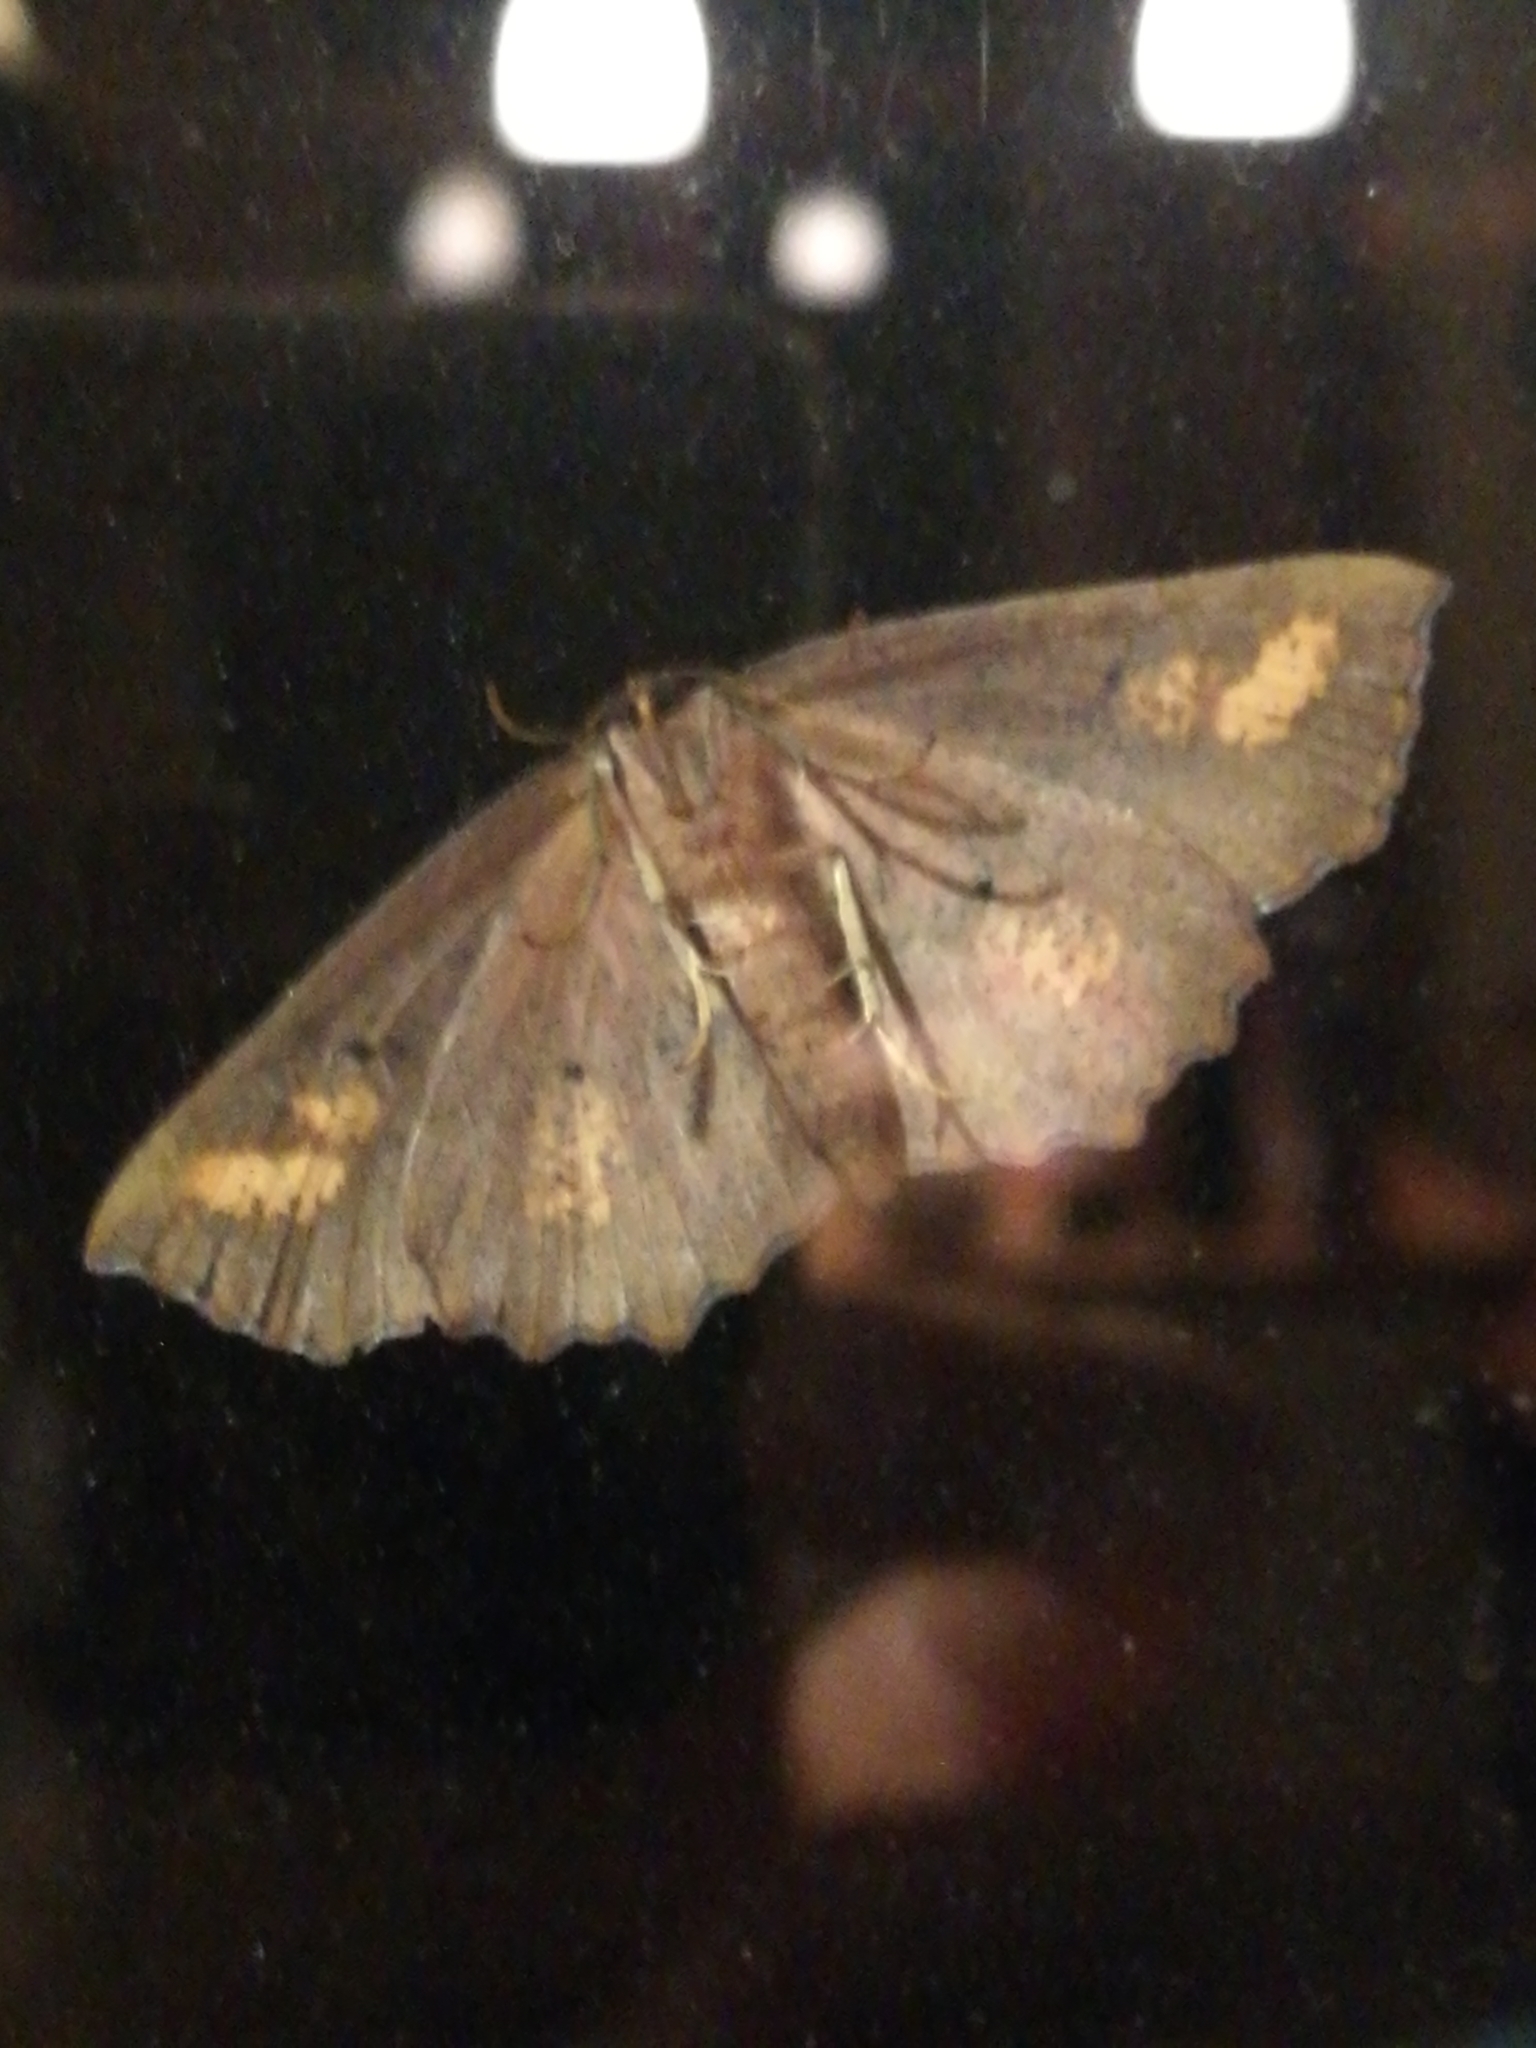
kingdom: Animalia
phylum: Arthropoda
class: Insecta
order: Lepidoptera
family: Geometridae
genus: Xyridacma
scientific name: Xyridacma ustaria
